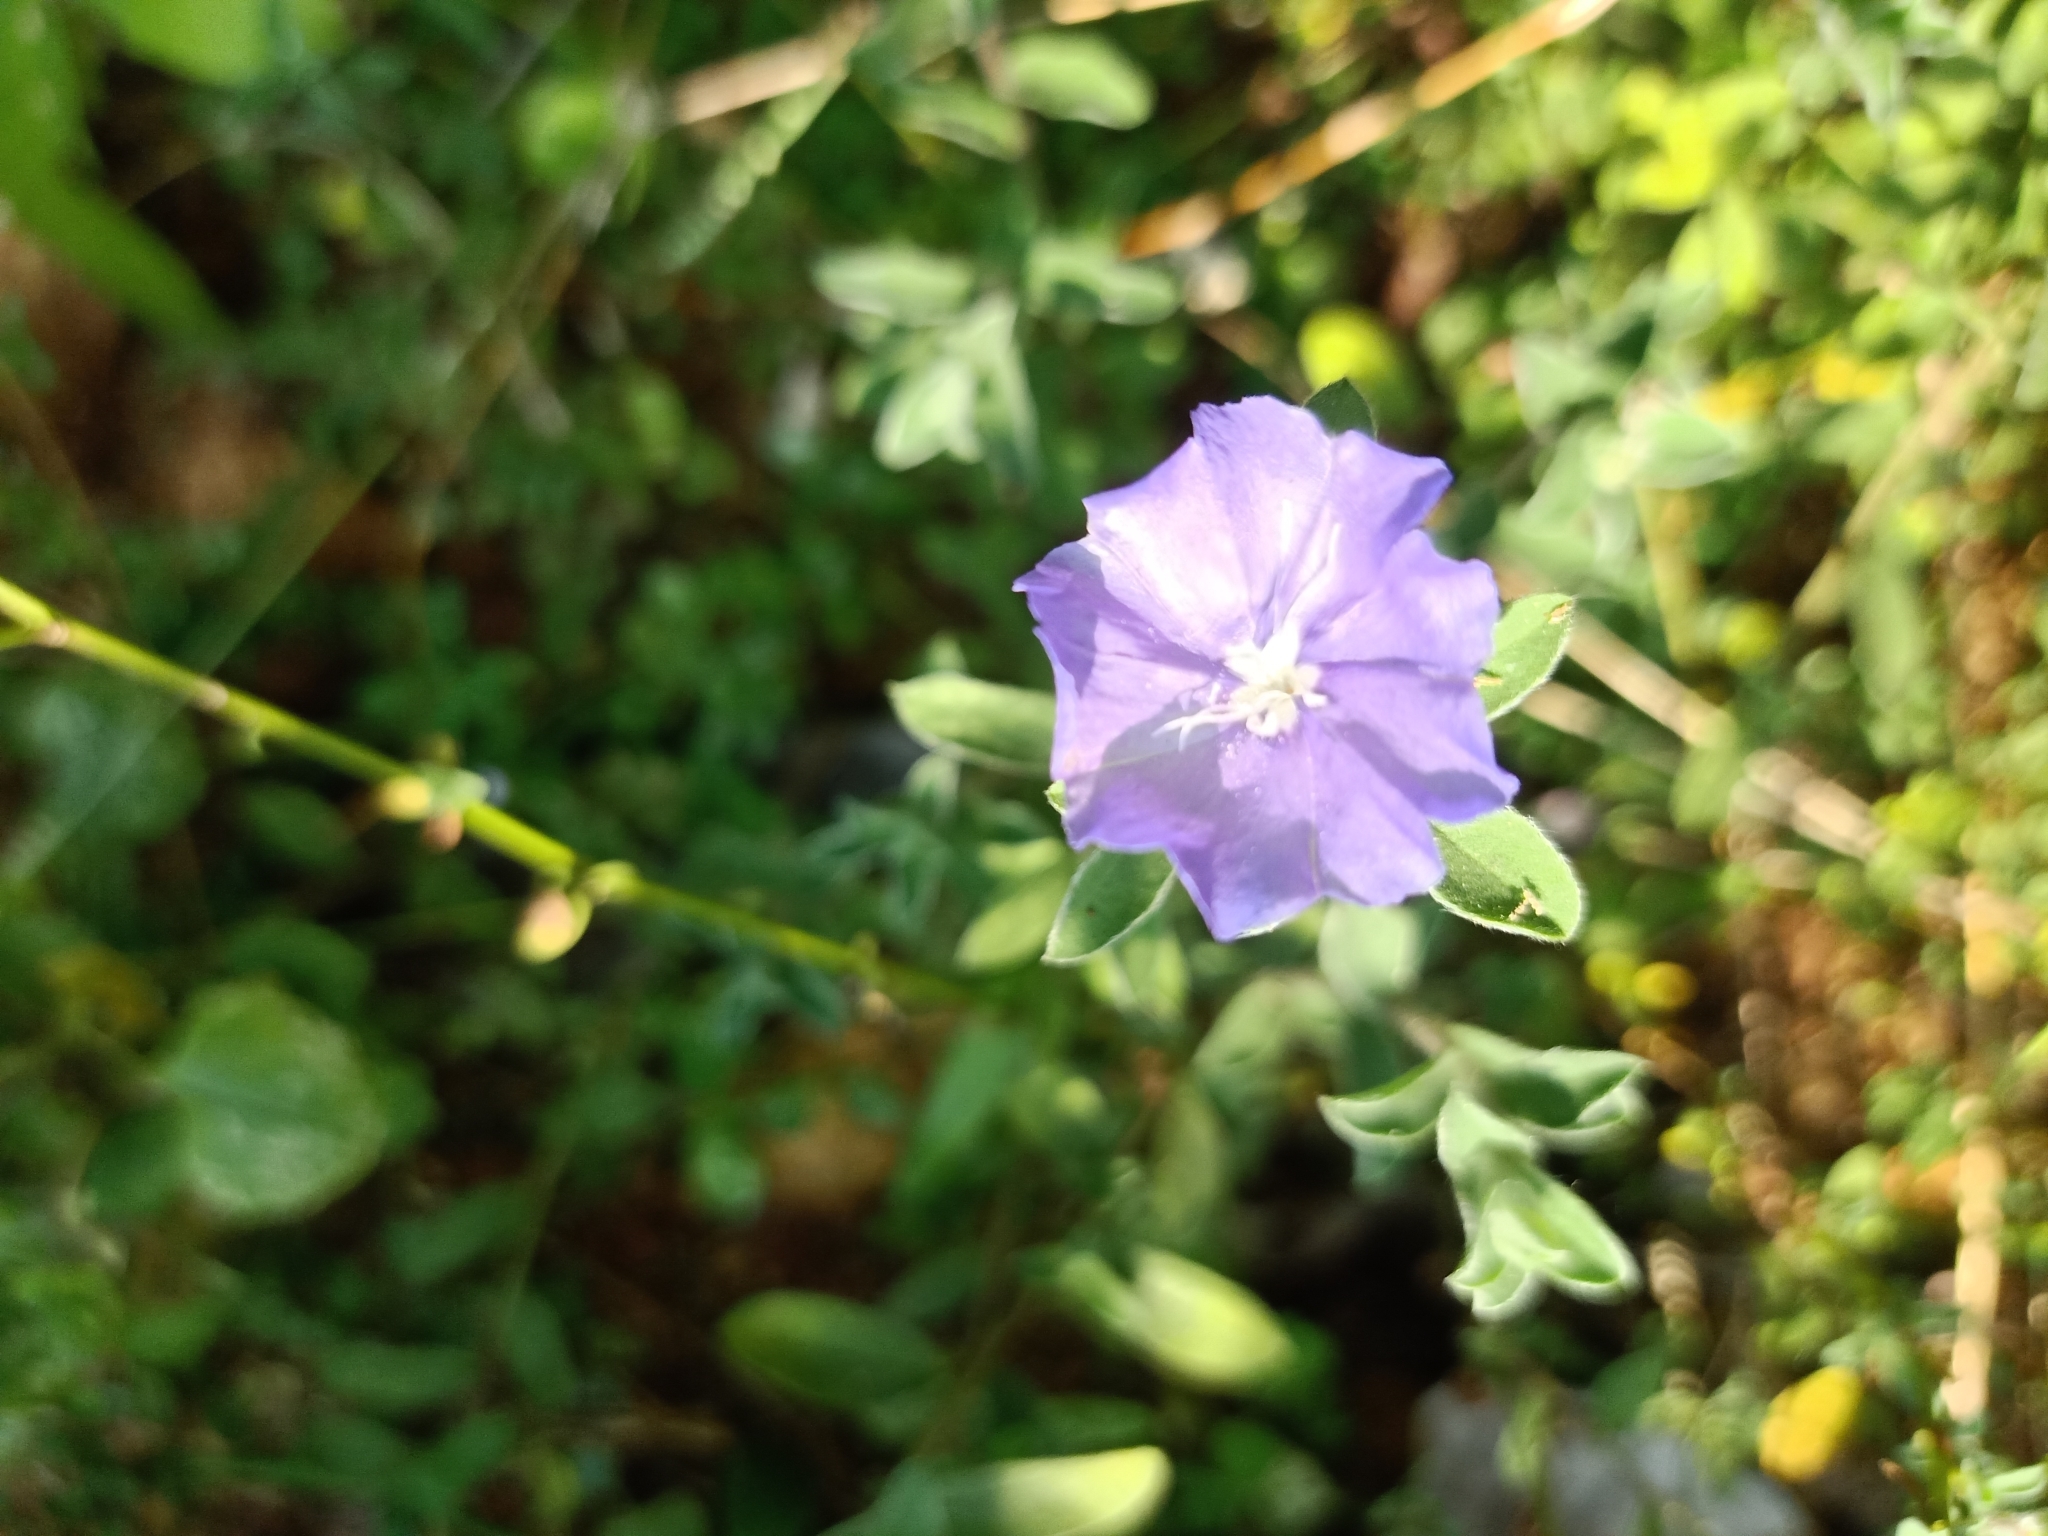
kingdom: Plantae
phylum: Tracheophyta
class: Magnoliopsida
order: Solanales
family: Convolvulaceae
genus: Evolvulus
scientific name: Evolvulus alsinoides
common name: Slender dwarf morning-glory
